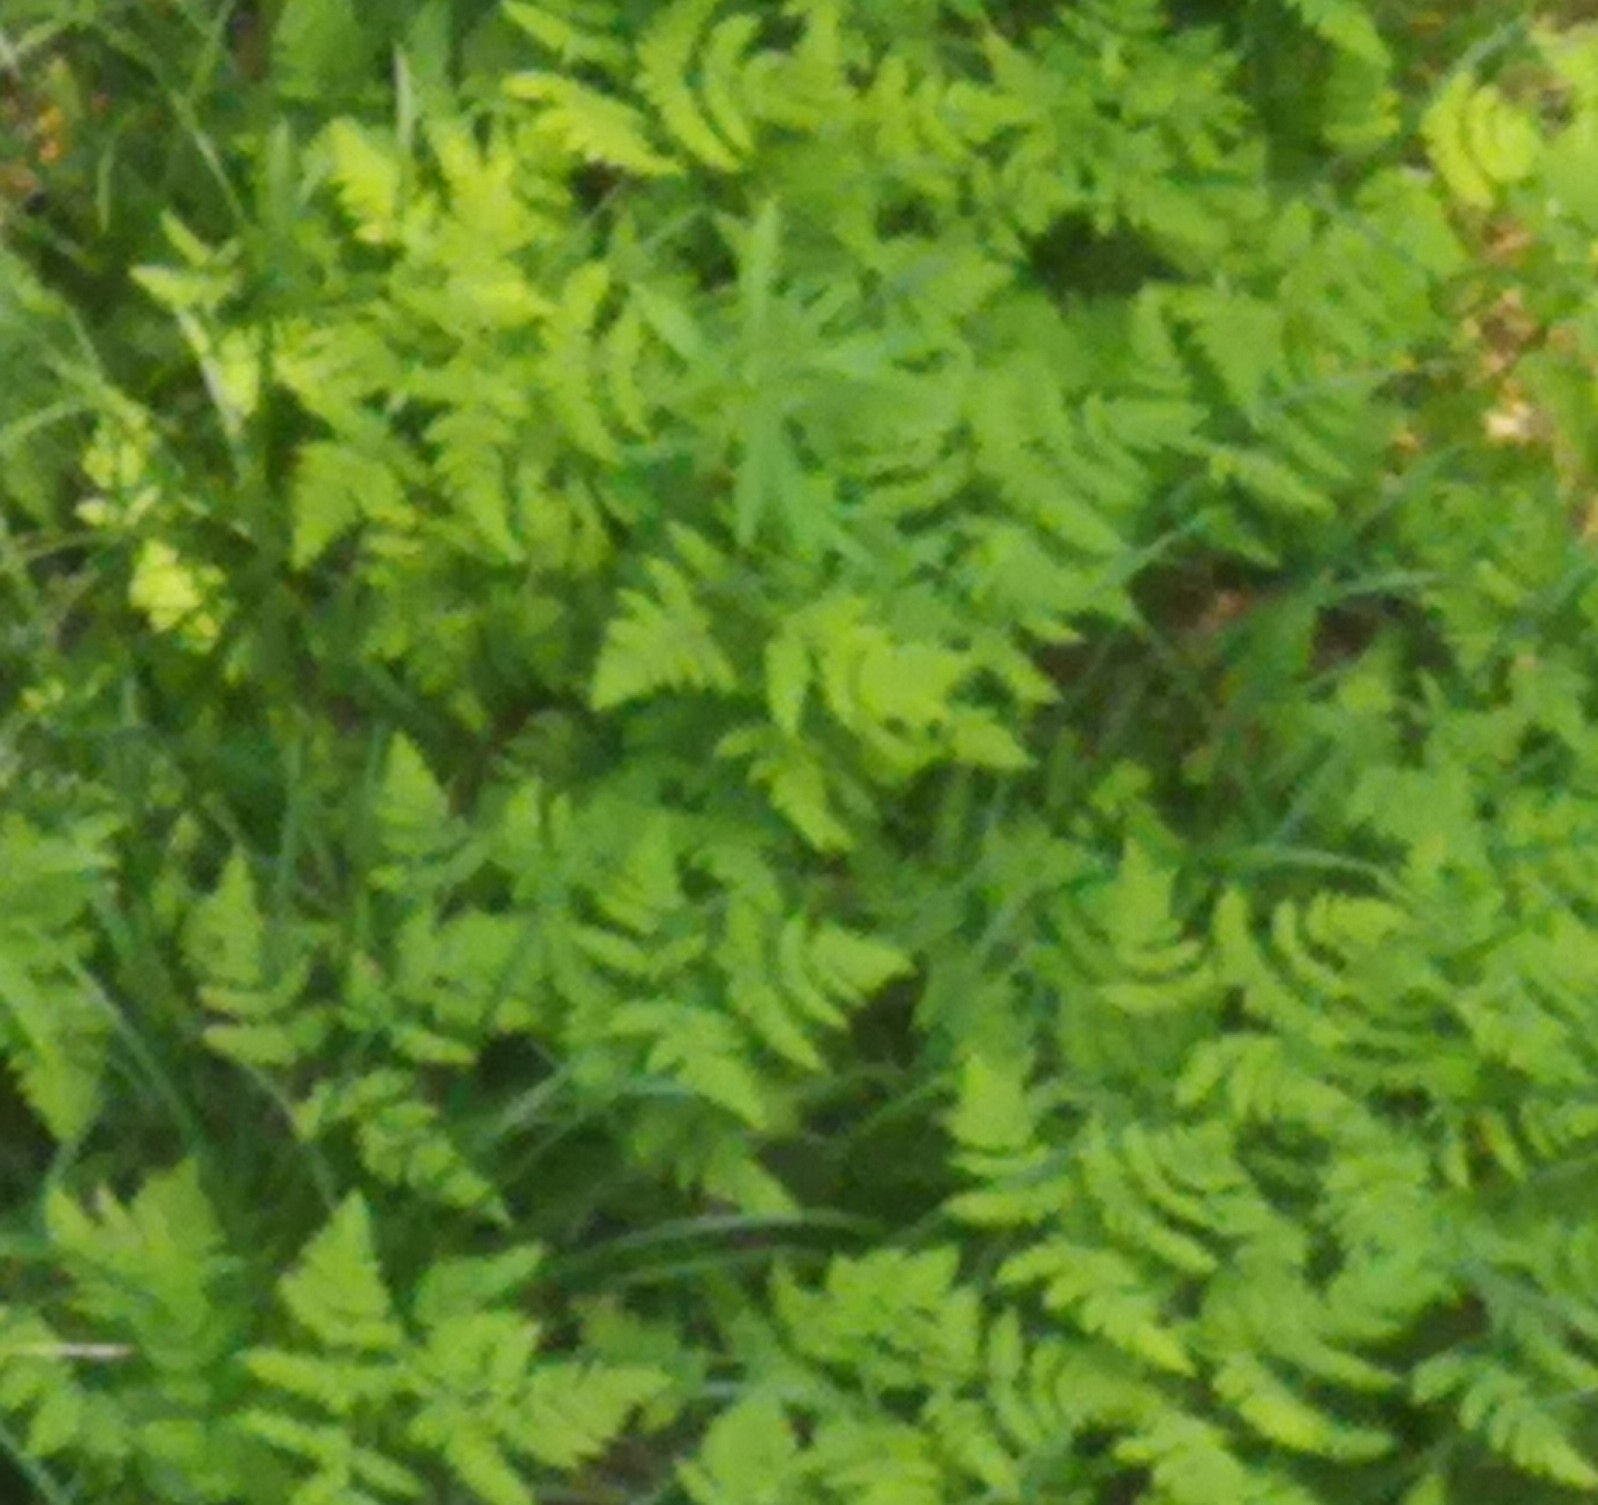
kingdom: Plantae
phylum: Tracheophyta
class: Polypodiopsida
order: Polypodiales
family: Cystopteridaceae
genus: Gymnocarpium
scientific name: Gymnocarpium dryopteris
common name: Oak fern
